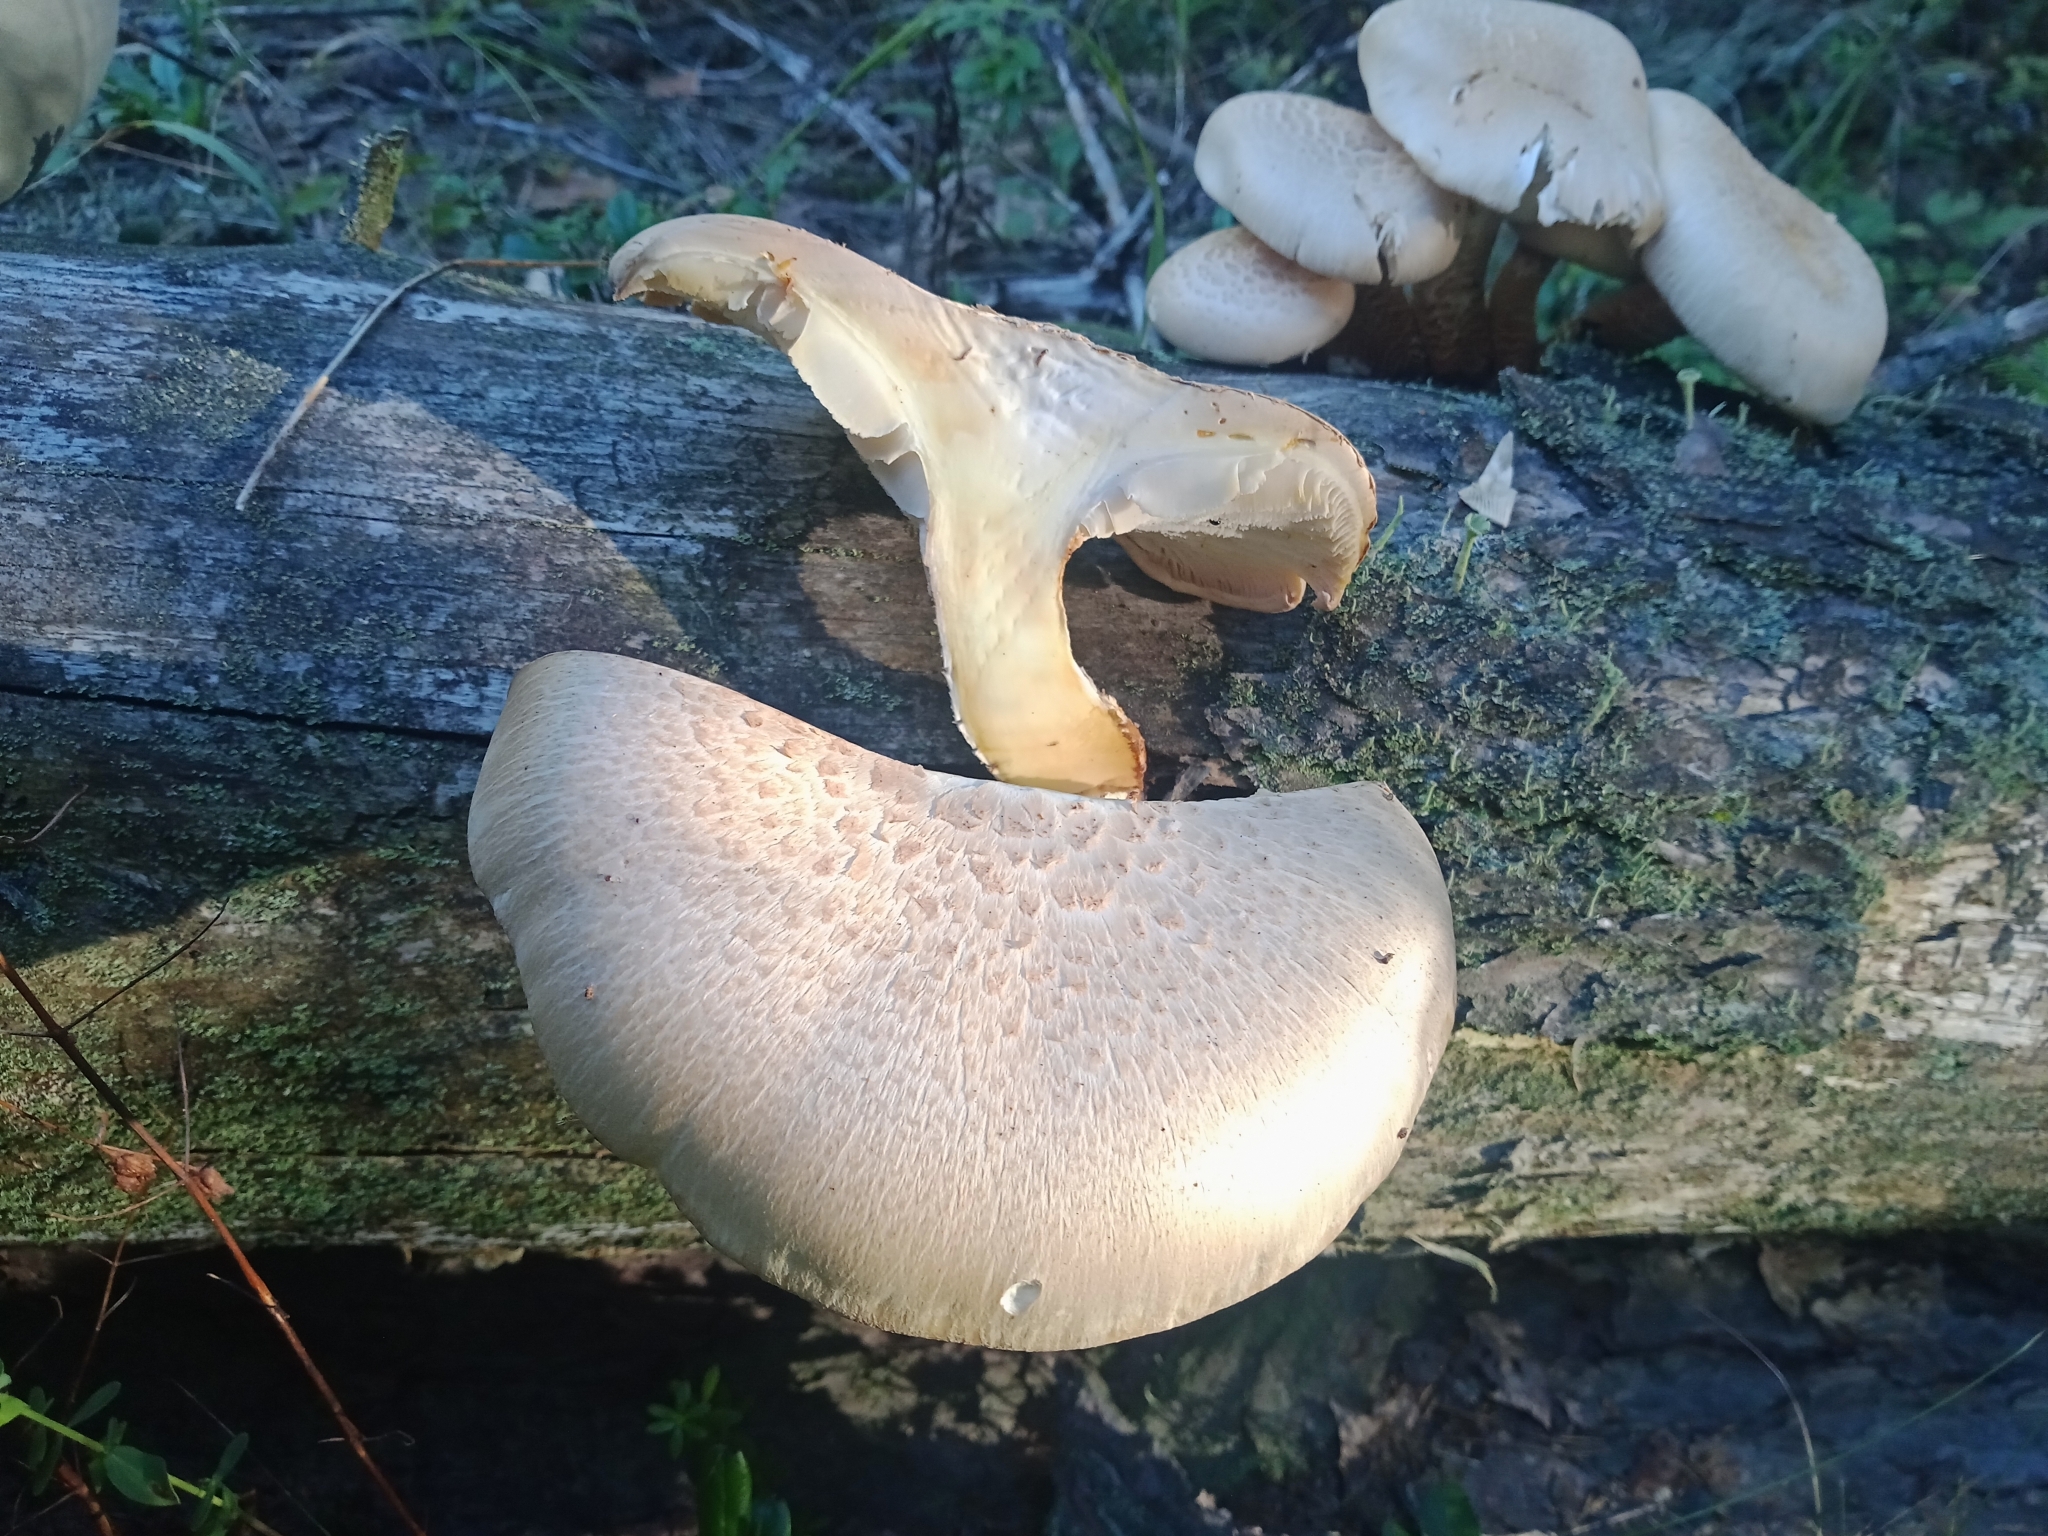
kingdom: Fungi
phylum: Basidiomycota
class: Agaricomycetes
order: Gloeophyllales
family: Gloeophyllaceae
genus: Neolentinus
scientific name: Neolentinus lepideus
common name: Scaly sawgill
